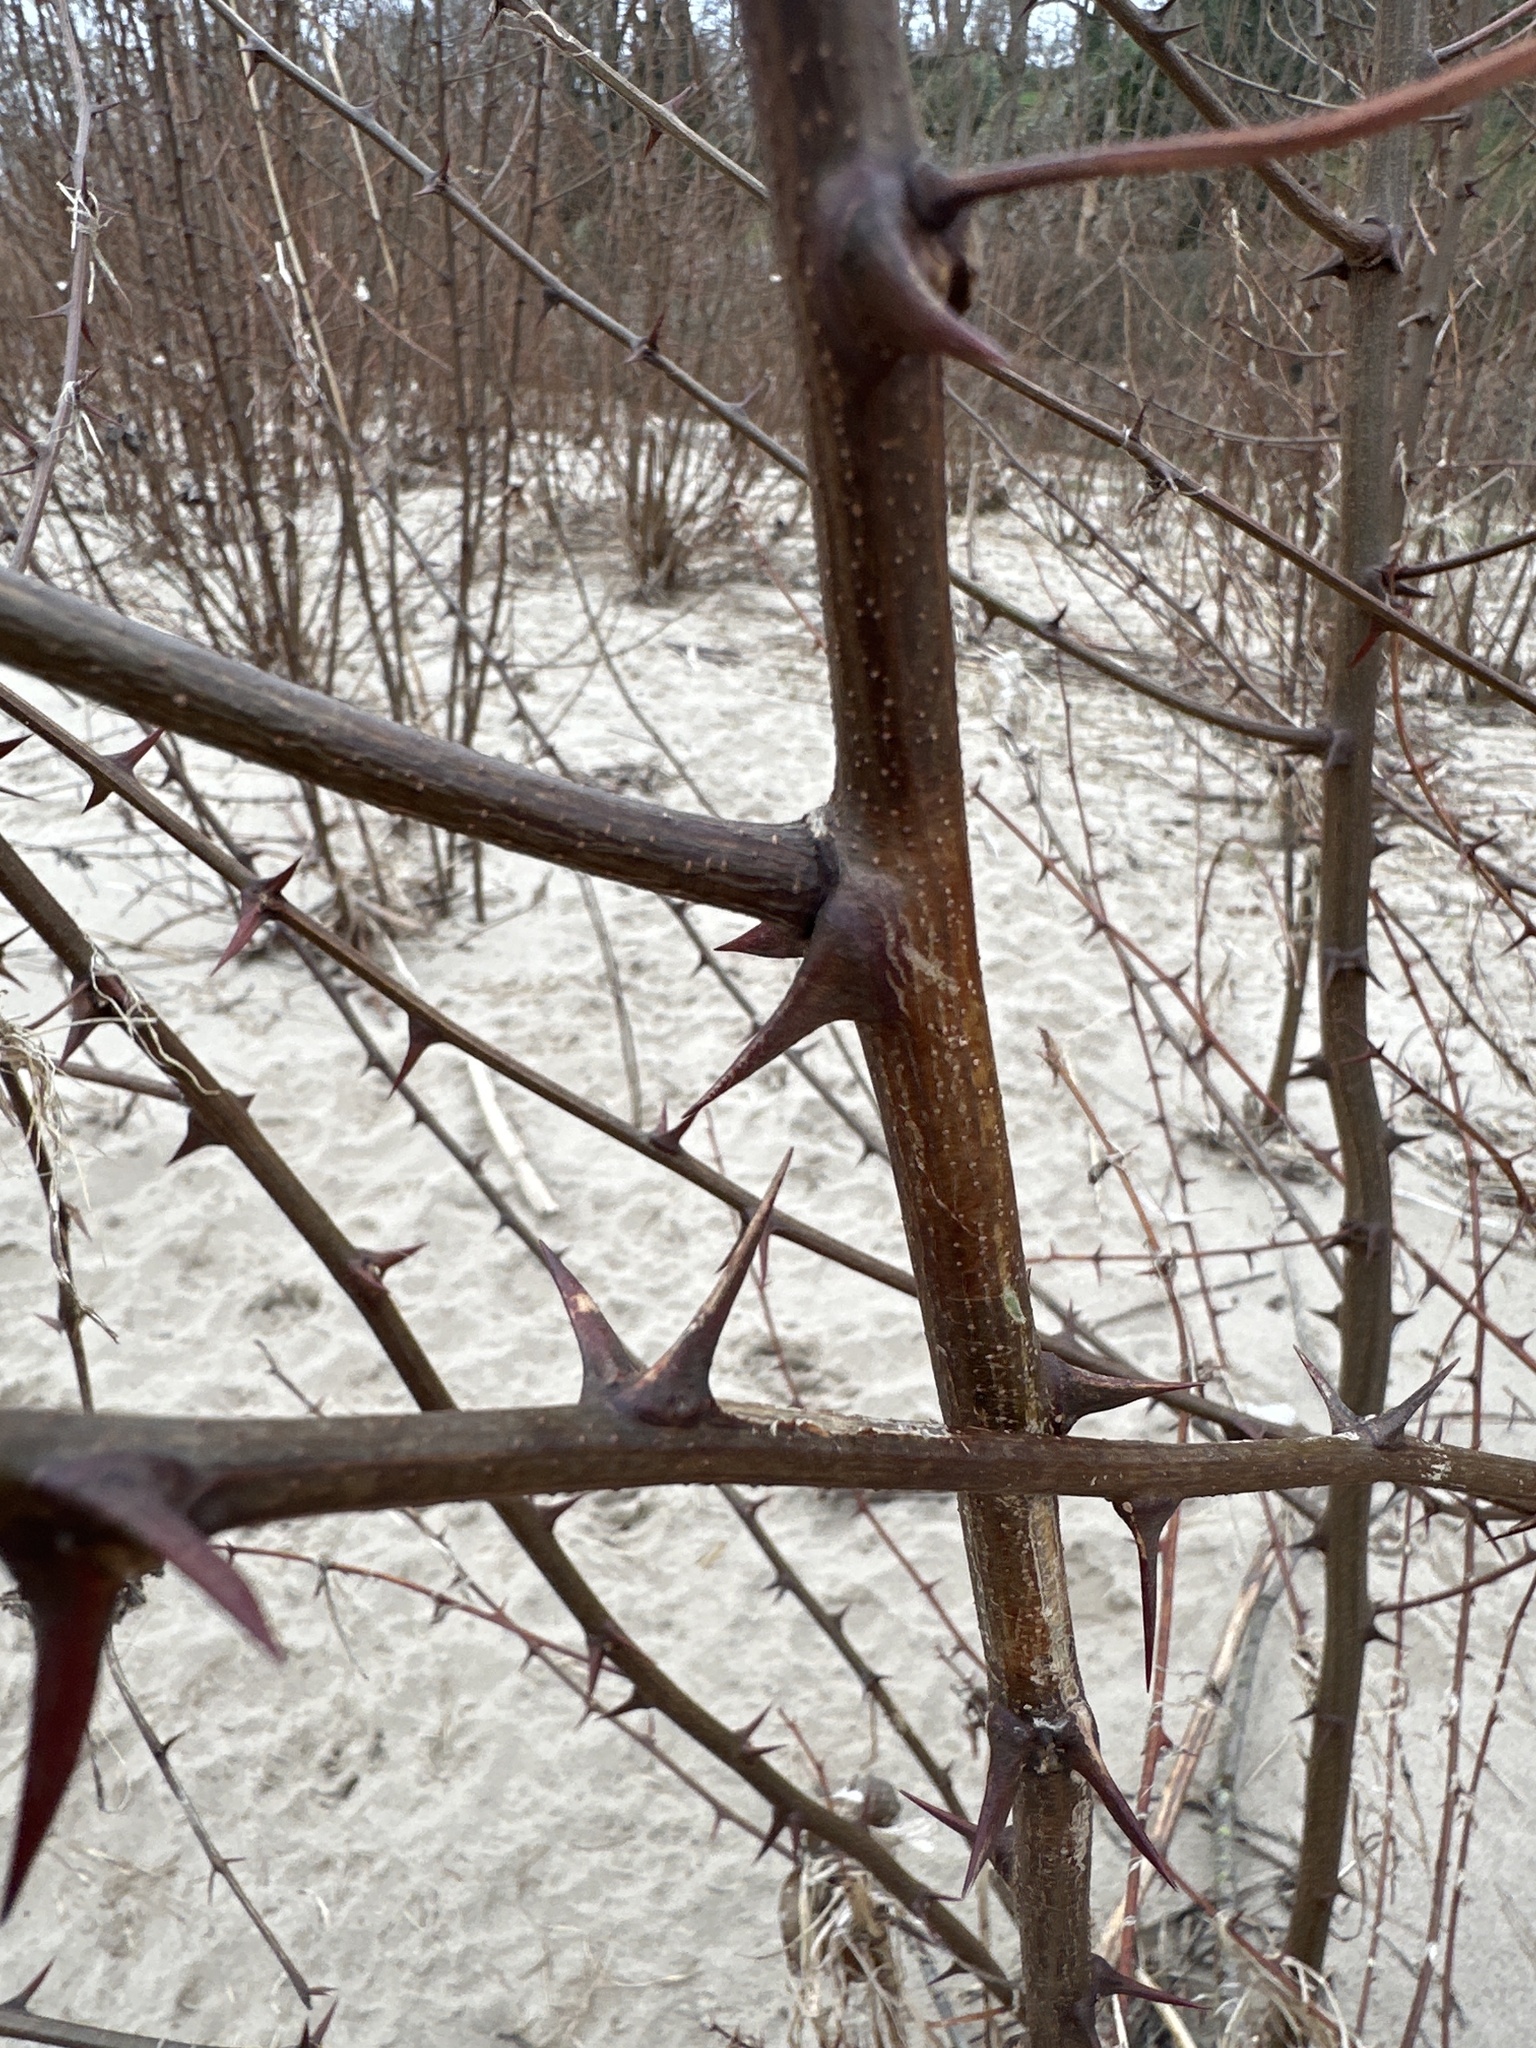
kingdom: Plantae
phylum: Tracheophyta
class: Magnoliopsida
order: Fabales
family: Fabaceae
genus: Robinia
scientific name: Robinia pseudoacacia
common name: Black locust
